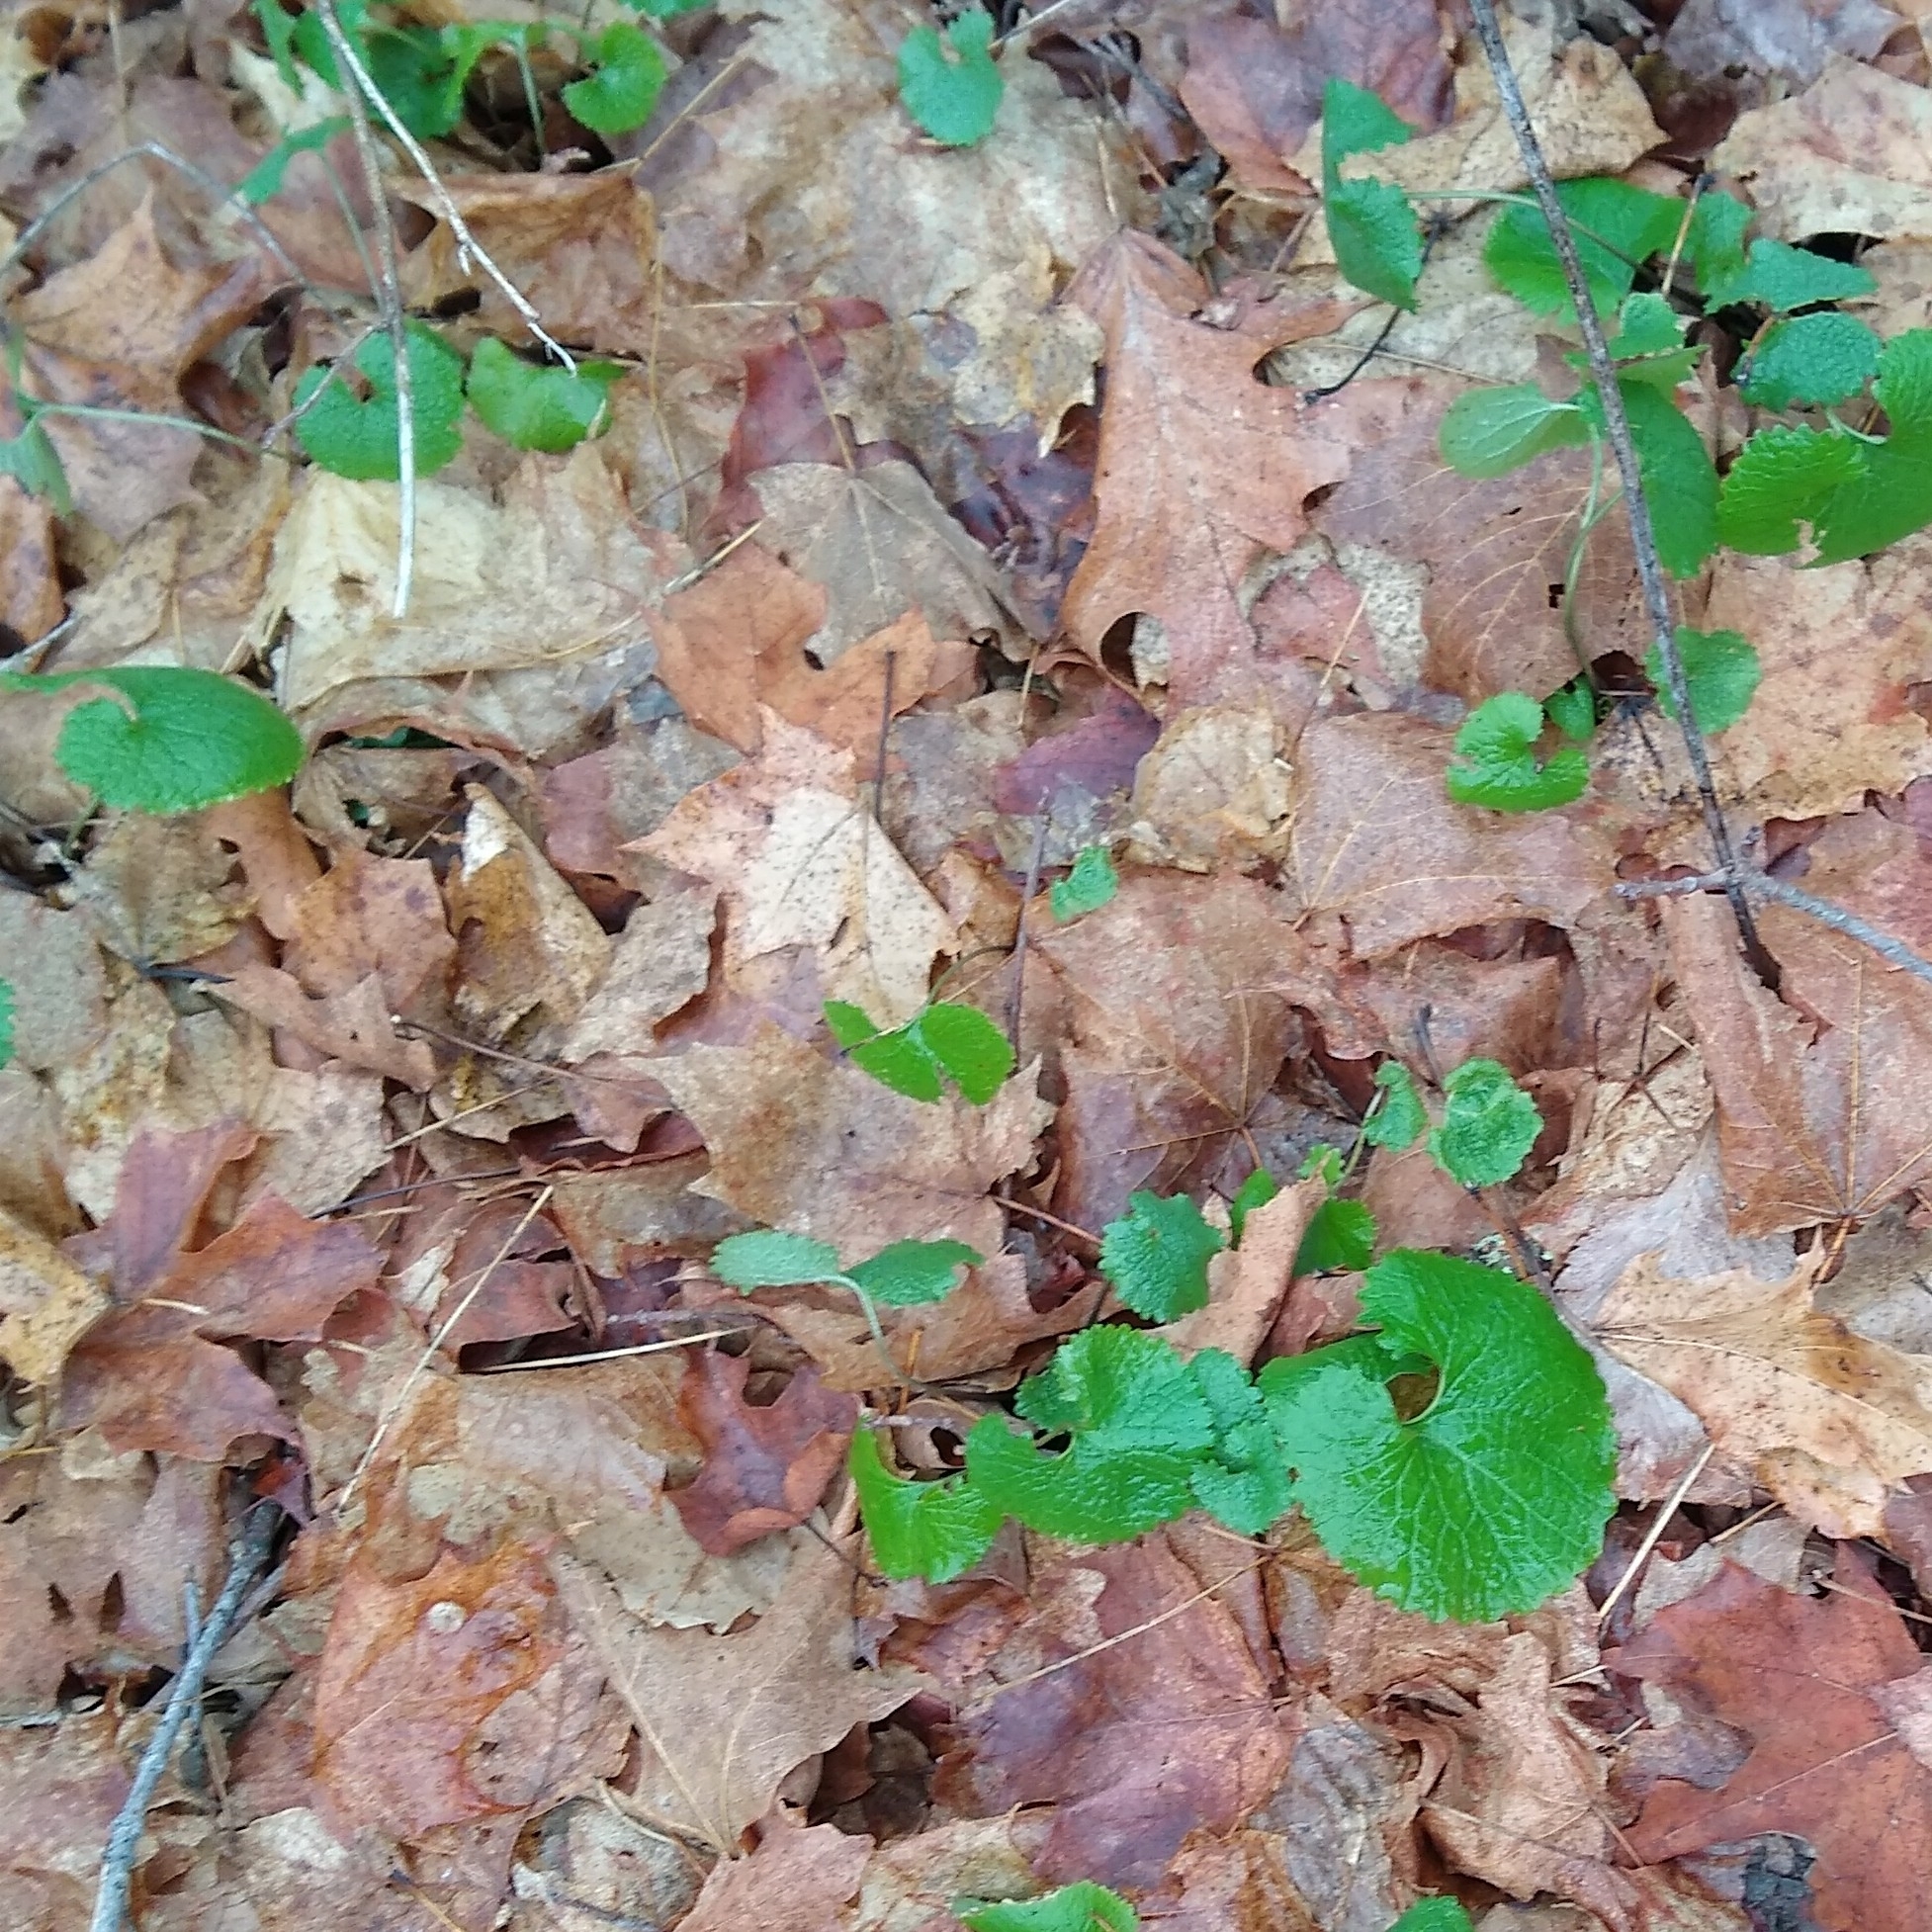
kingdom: Plantae
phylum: Tracheophyta
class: Magnoliopsida
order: Brassicales
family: Brassicaceae
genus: Alliaria
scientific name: Alliaria petiolata
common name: Garlic mustard
